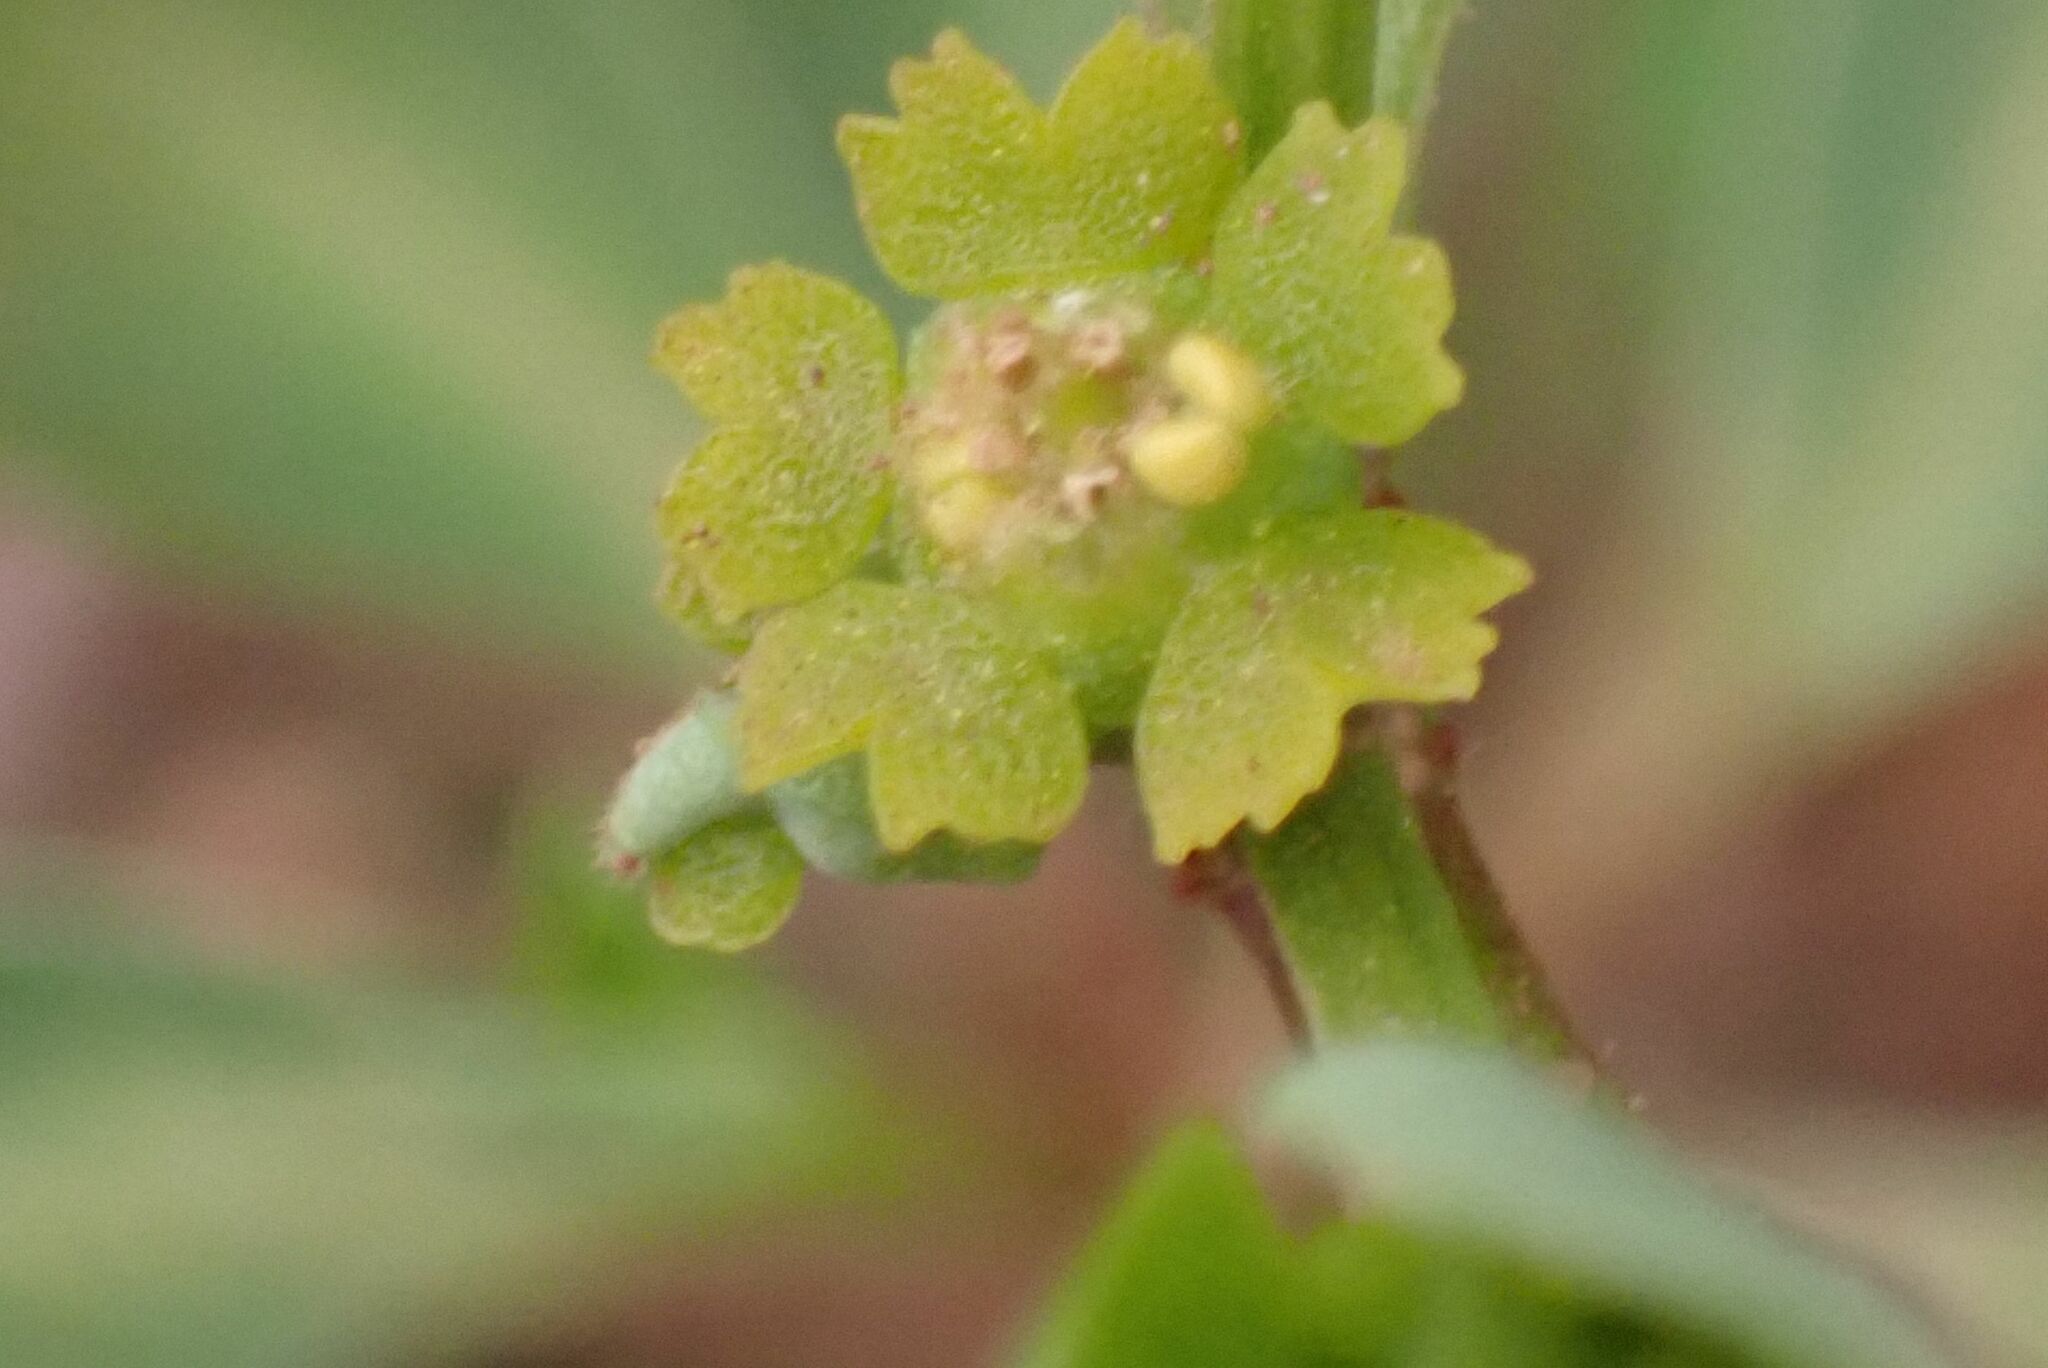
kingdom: Plantae
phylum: Tracheophyta
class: Magnoliopsida
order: Malpighiales
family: Euphorbiaceae
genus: Euphorbia
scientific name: Euphorbia transvaalensis
